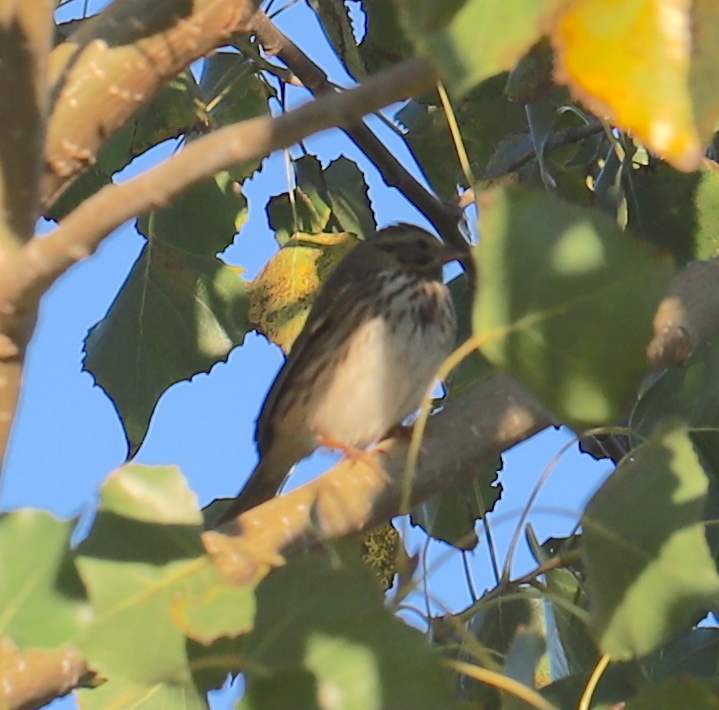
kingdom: Animalia
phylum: Chordata
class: Aves
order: Passeriformes
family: Passerellidae
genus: Passerculus
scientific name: Passerculus sandwichensis
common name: Savannah sparrow
